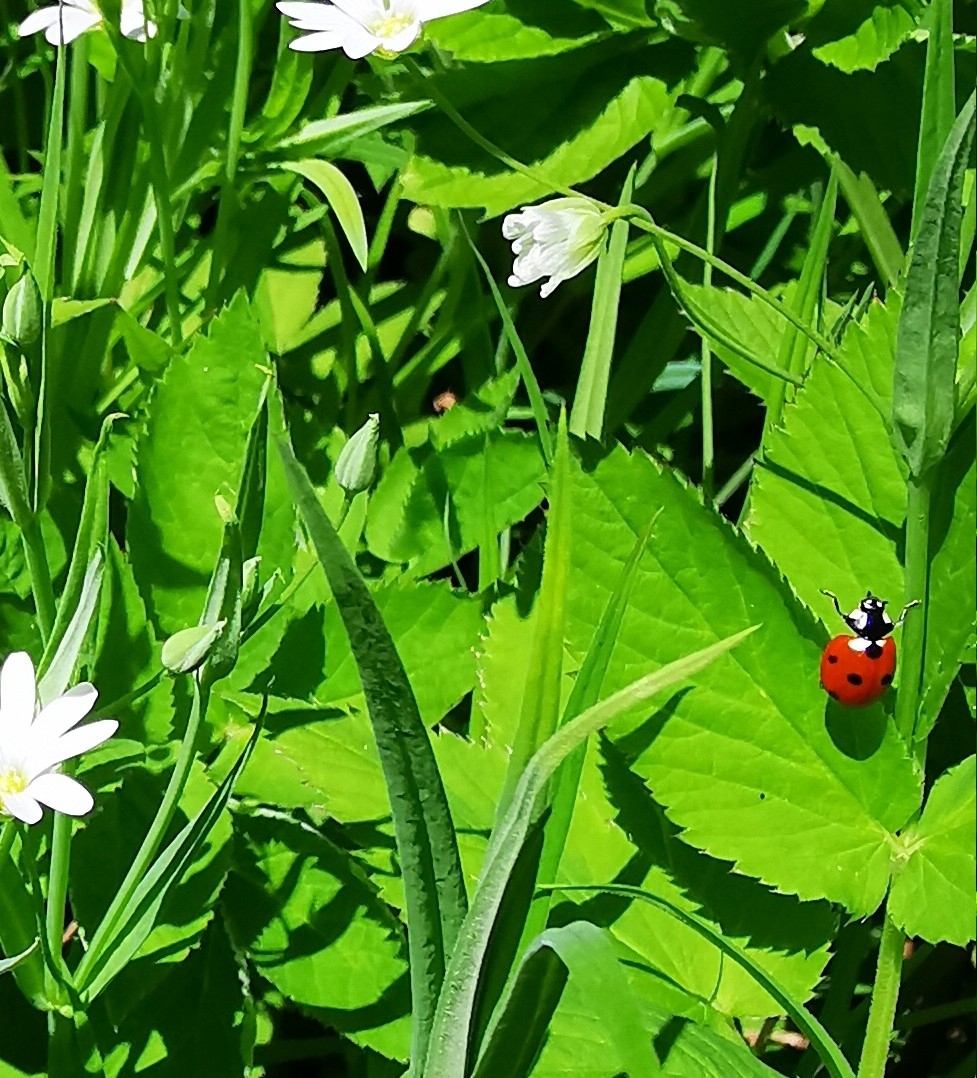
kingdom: Animalia
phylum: Arthropoda
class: Insecta
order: Coleoptera
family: Coccinellidae
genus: Coccinella
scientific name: Coccinella septempunctata
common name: Sevenspotted lady beetle
